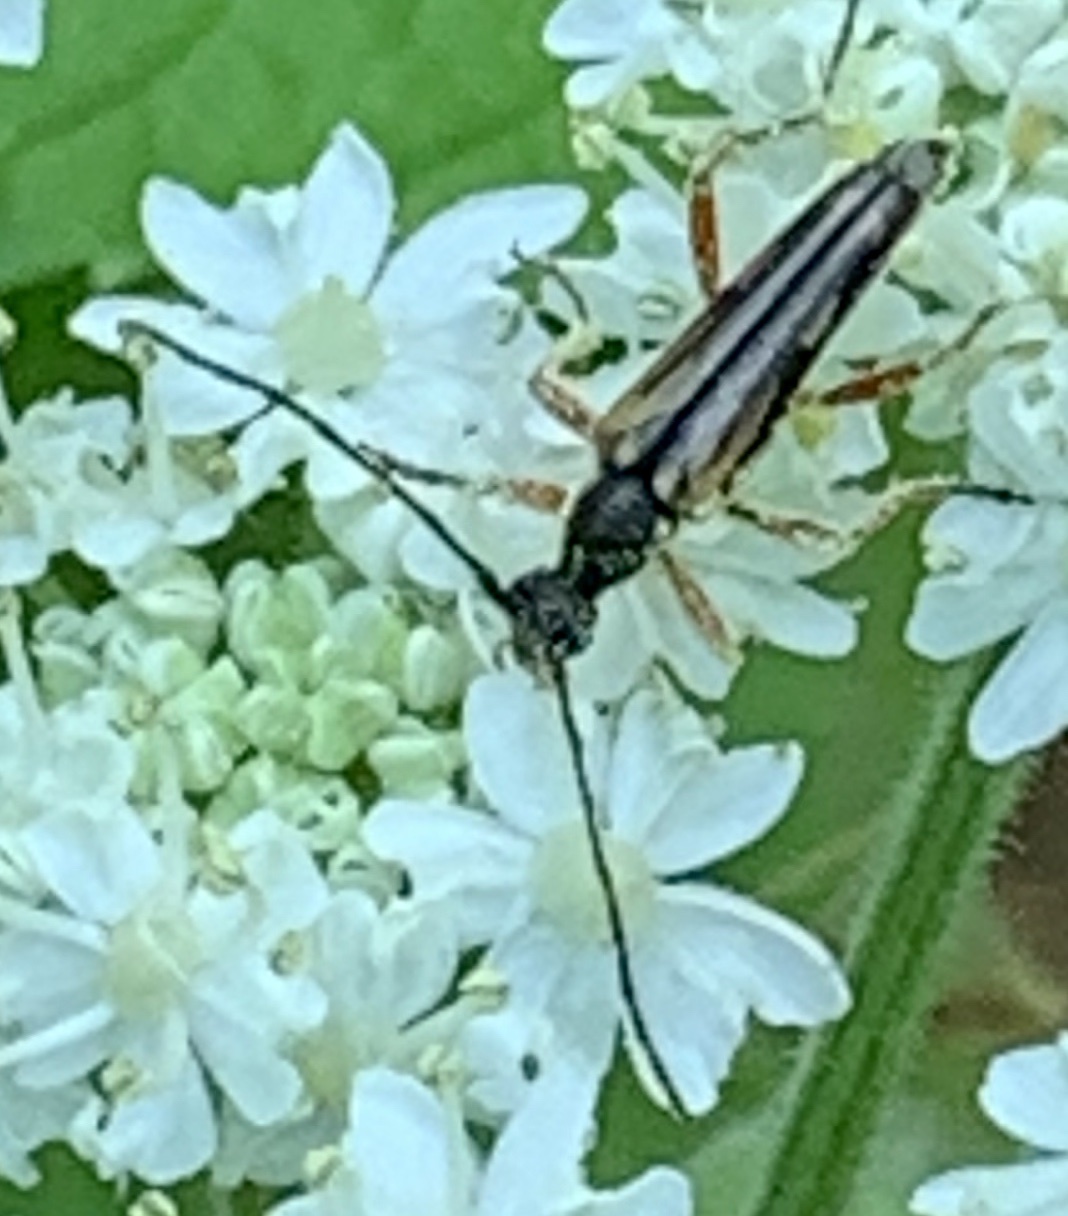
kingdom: Animalia
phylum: Arthropoda
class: Insecta
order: Coleoptera
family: Cerambycidae
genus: Analeptura
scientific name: Analeptura lineola
